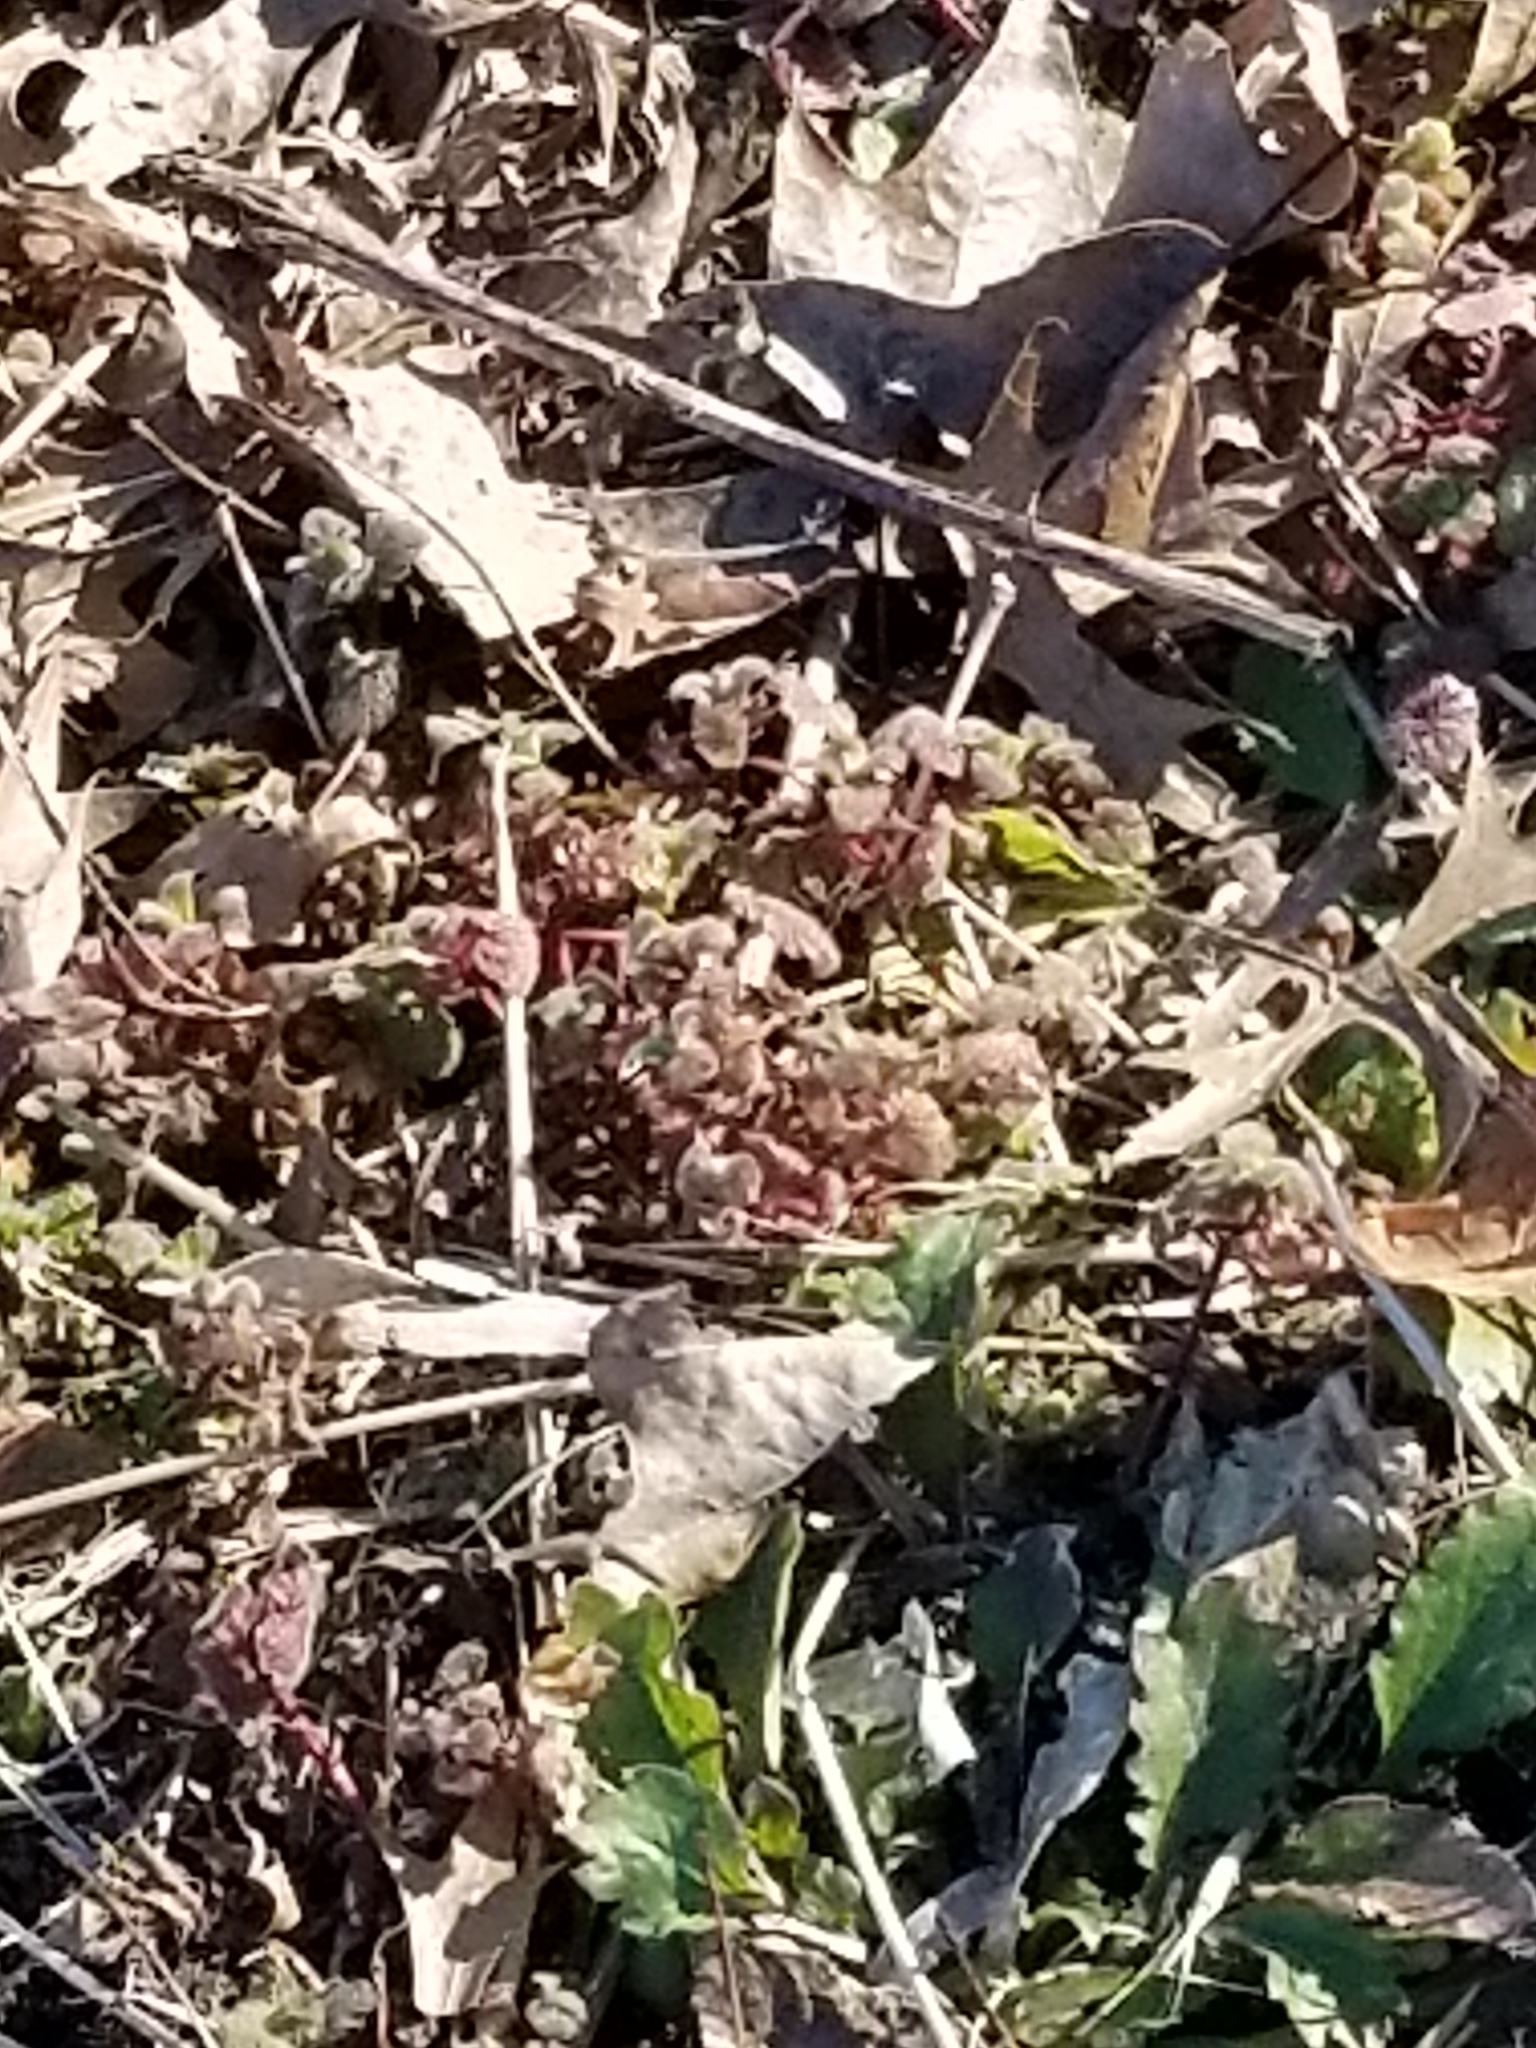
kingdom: Plantae
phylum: Tracheophyta
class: Magnoliopsida
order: Lamiales
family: Lamiaceae
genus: Lamium
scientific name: Lamium purpureum
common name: Red dead-nettle
